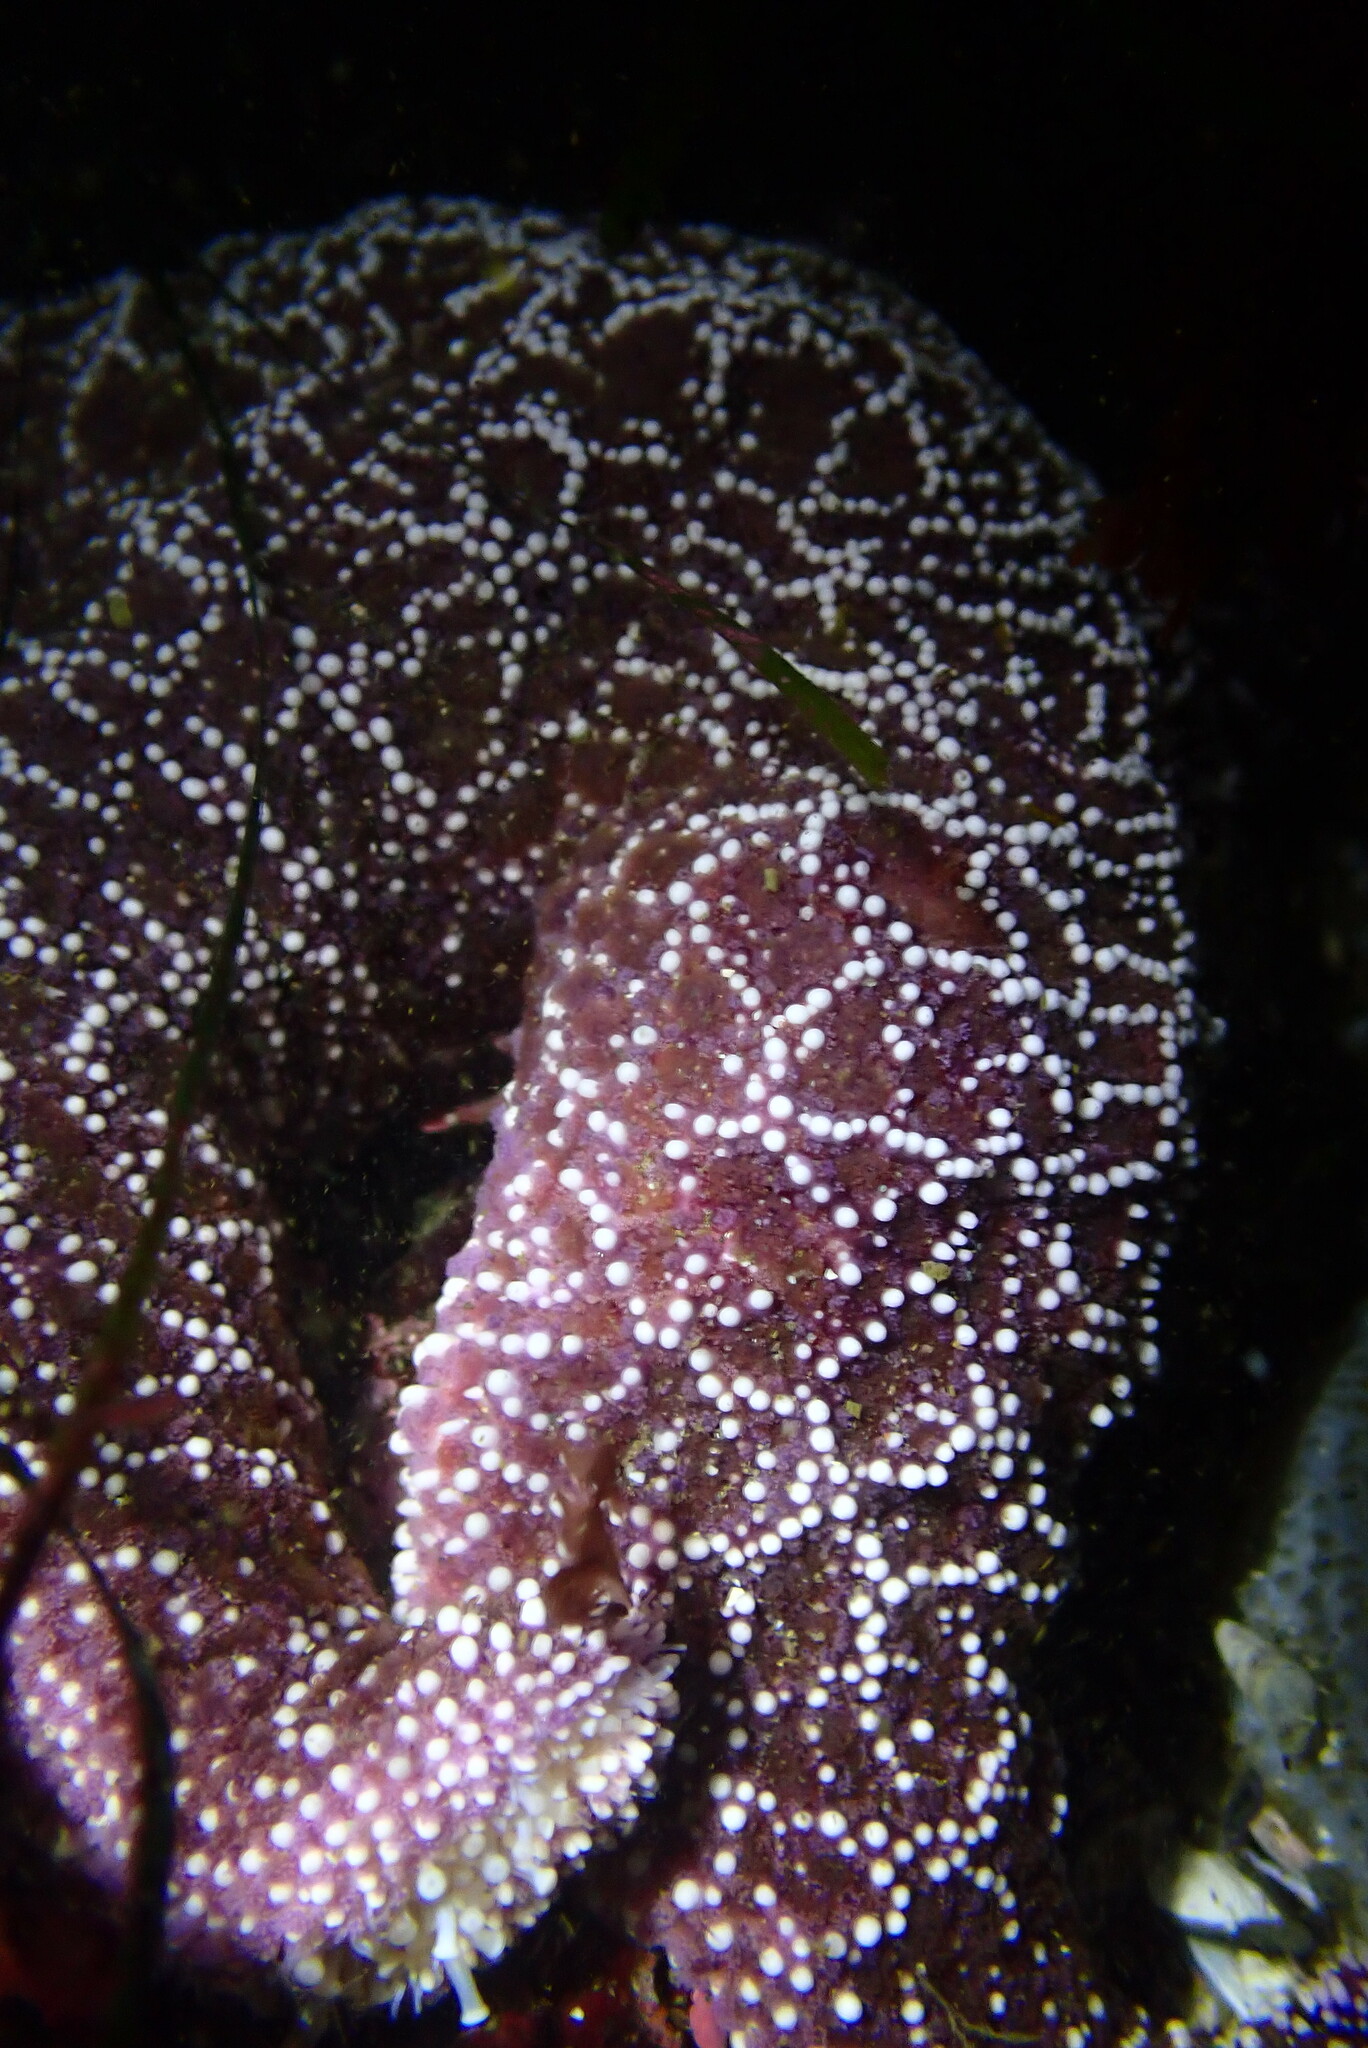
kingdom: Animalia
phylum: Echinodermata
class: Asteroidea
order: Forcipulatida
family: Asteriidae
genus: Pisaster
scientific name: Pisaster ochraceus
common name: Ochre stars
